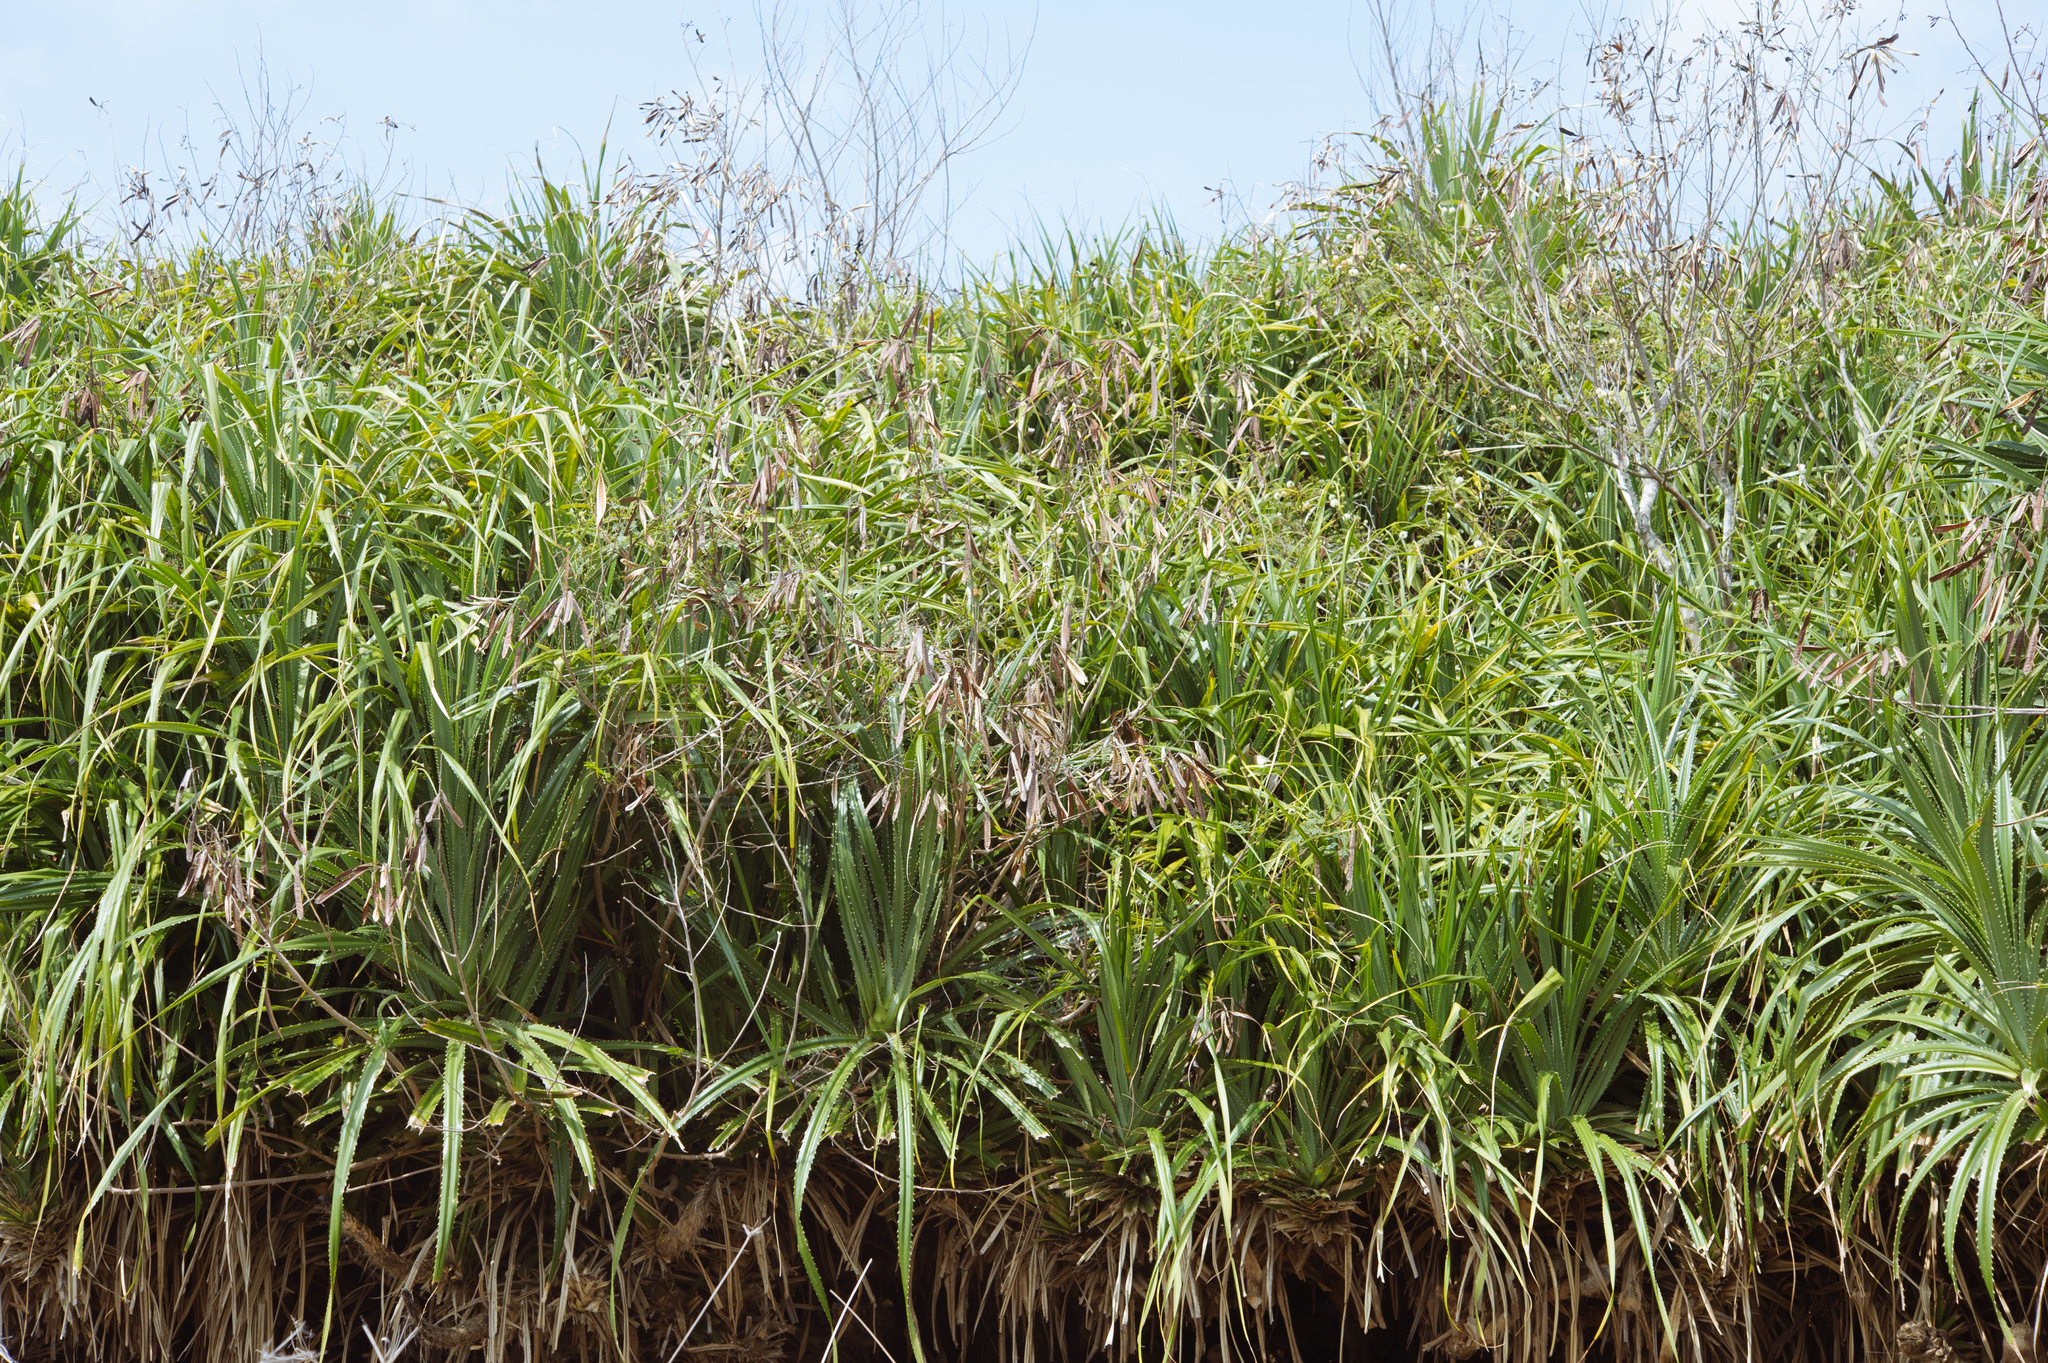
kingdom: Plantae
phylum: Tracheophyta
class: Liliopsida
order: Pandanales
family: Pandanaceae
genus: Pandanus
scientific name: Pandanus odorifer
